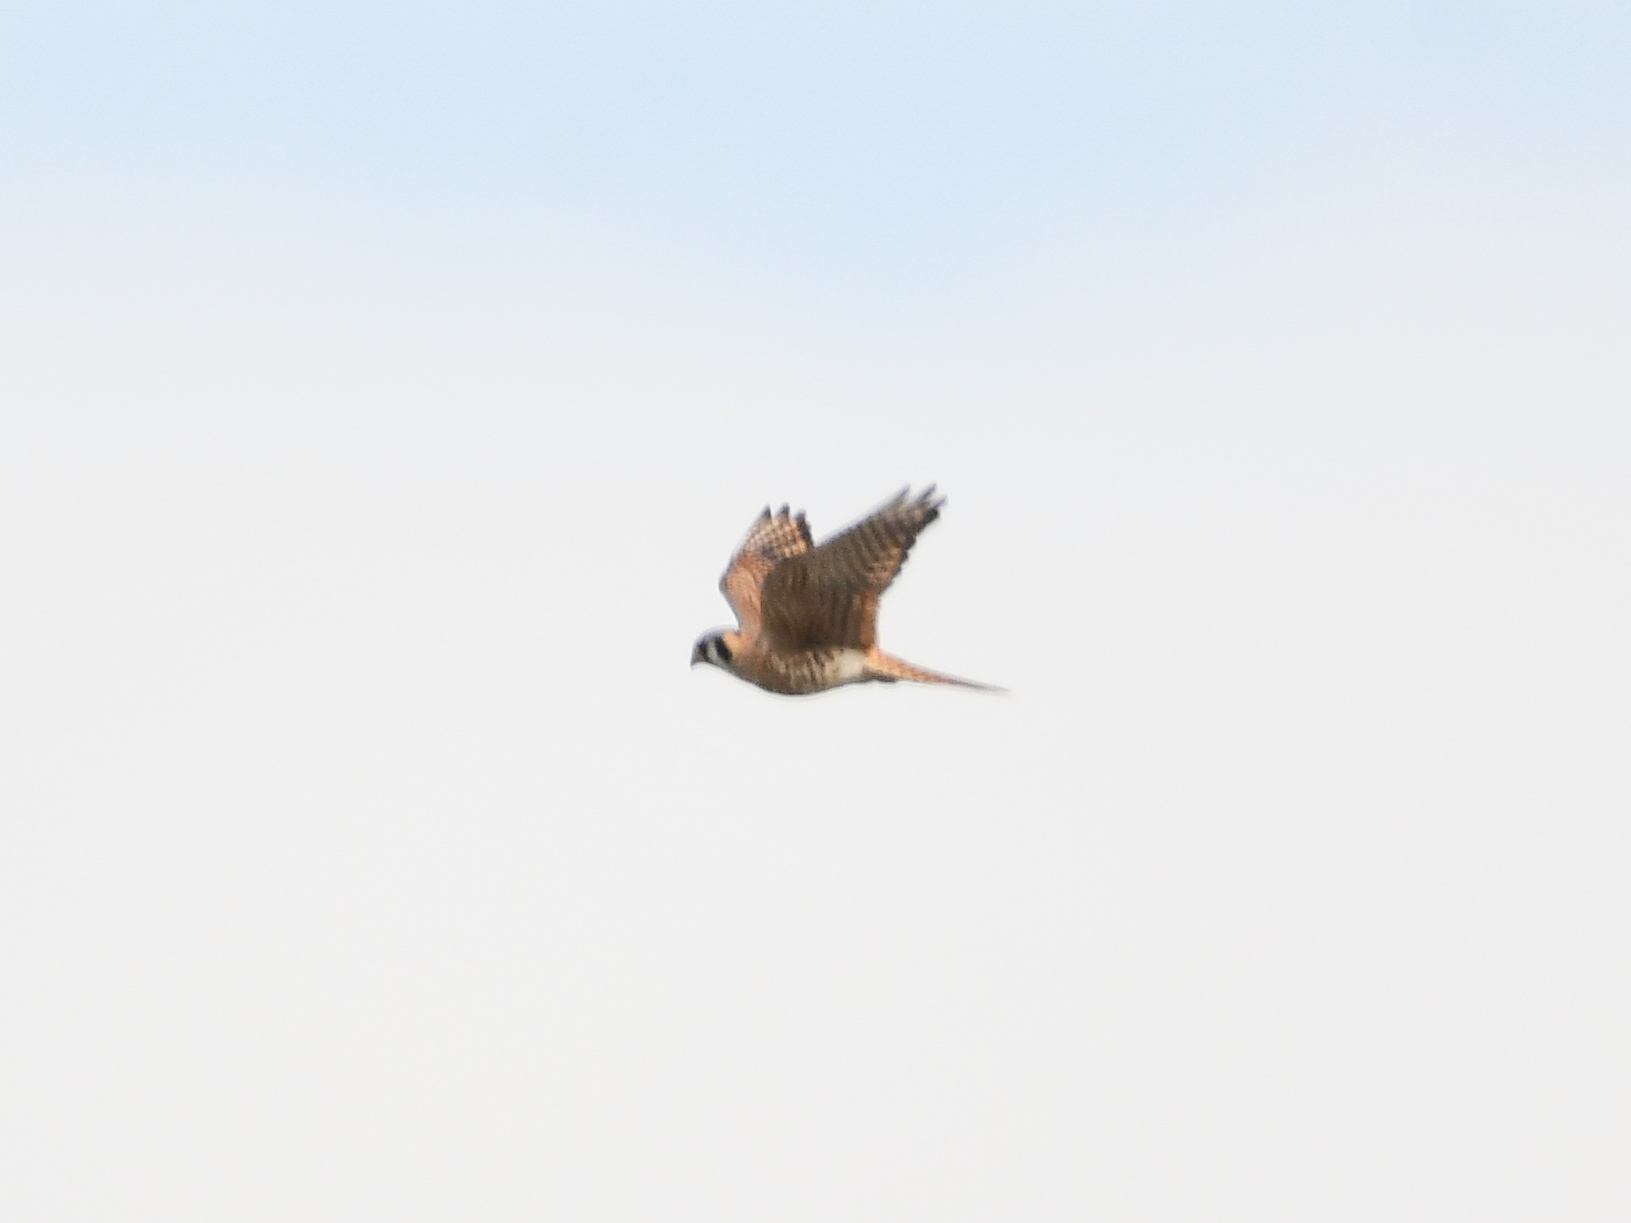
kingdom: Animalia
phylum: Chordata
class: Aves
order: Falconiformes
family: Falconidae
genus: Falco
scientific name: Falco sparverius
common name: American kestrel
